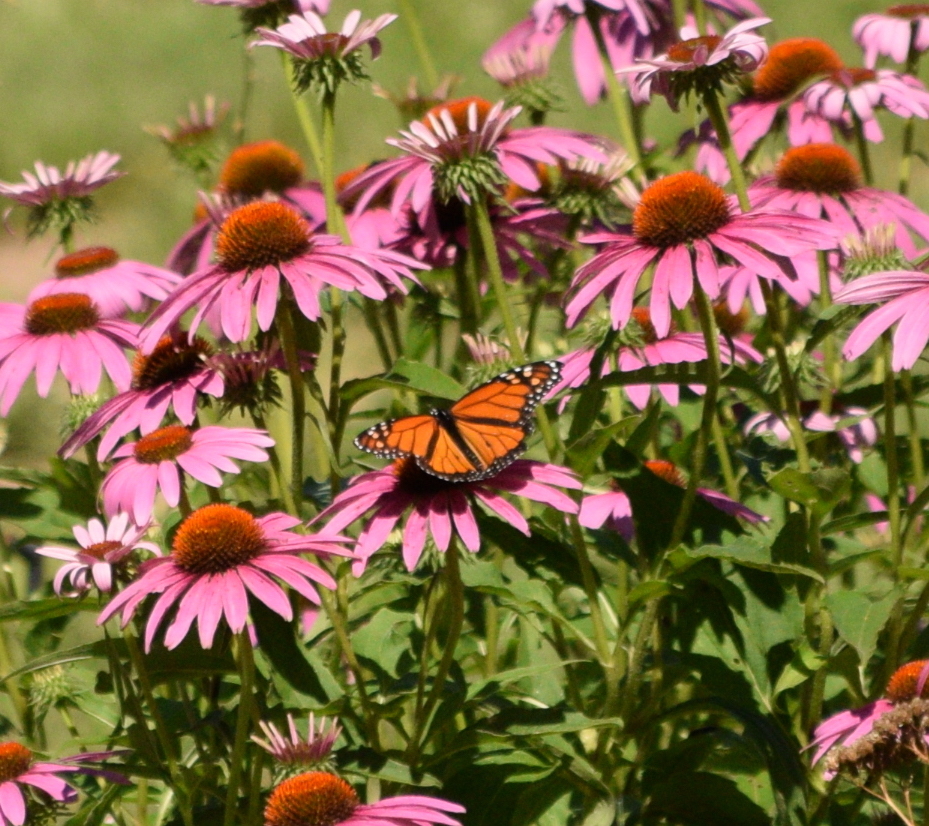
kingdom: Animalia
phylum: Arthropoda
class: Insecta
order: Lepidoptera
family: Nymphalidae
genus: Danaus
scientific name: Danaus plexippus
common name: Monarch
